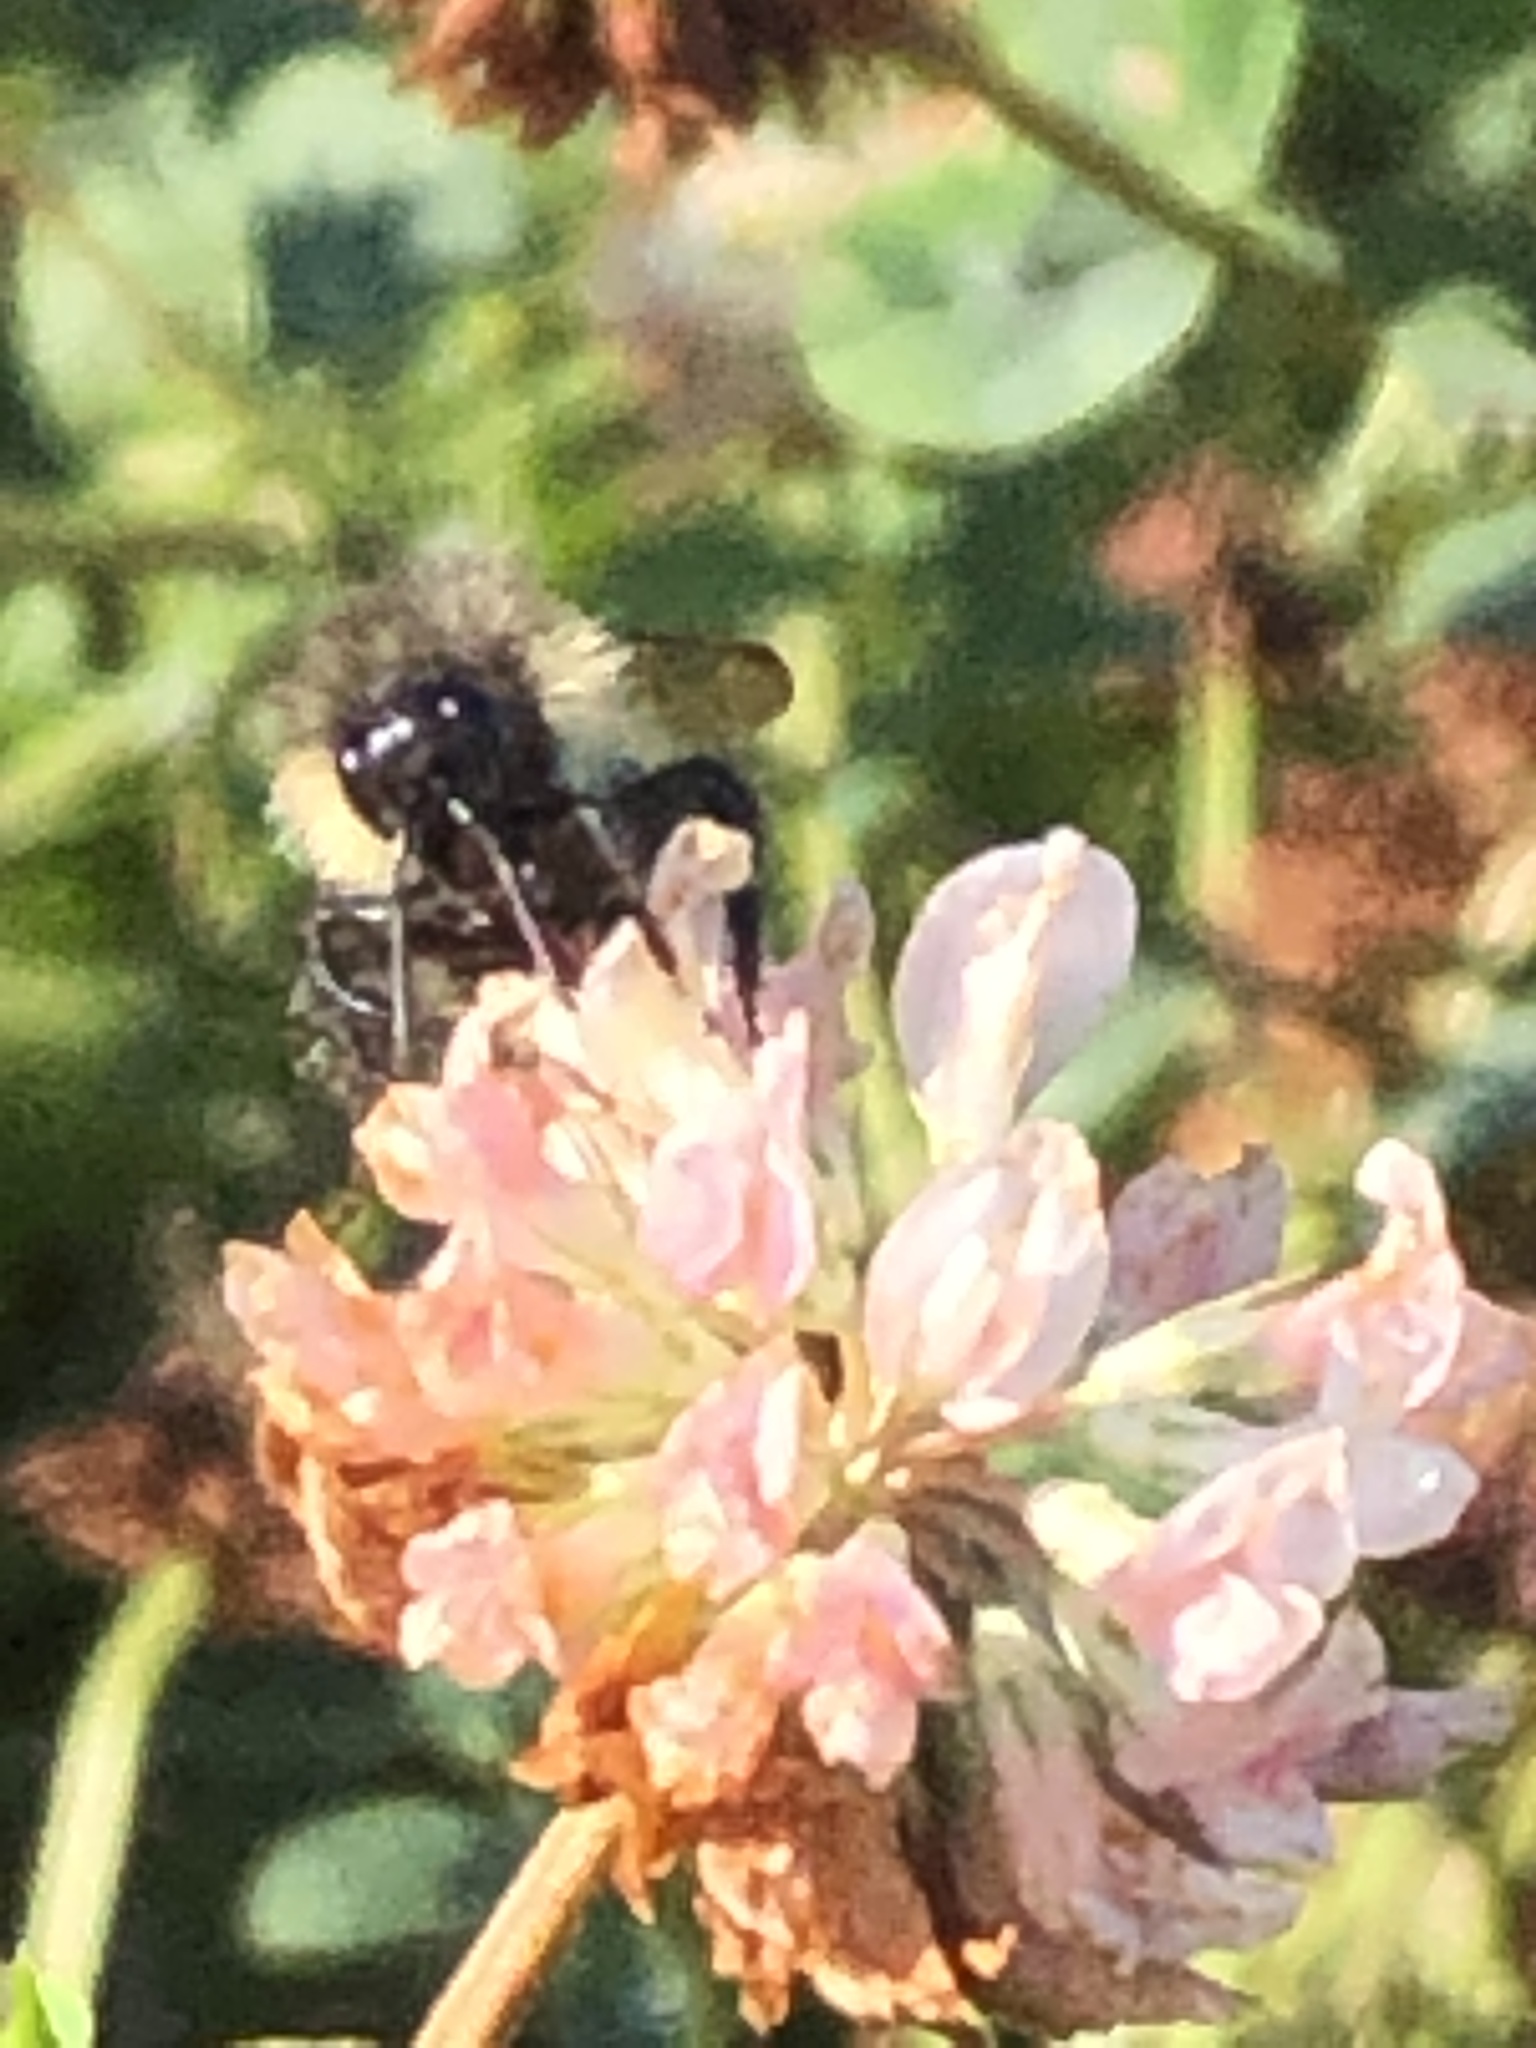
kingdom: Animalia
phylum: Arthropoda
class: Insecta
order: Hymenoptera
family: Apidae
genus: Bombus
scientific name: Bombus vagans
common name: Half-black bumble bee
